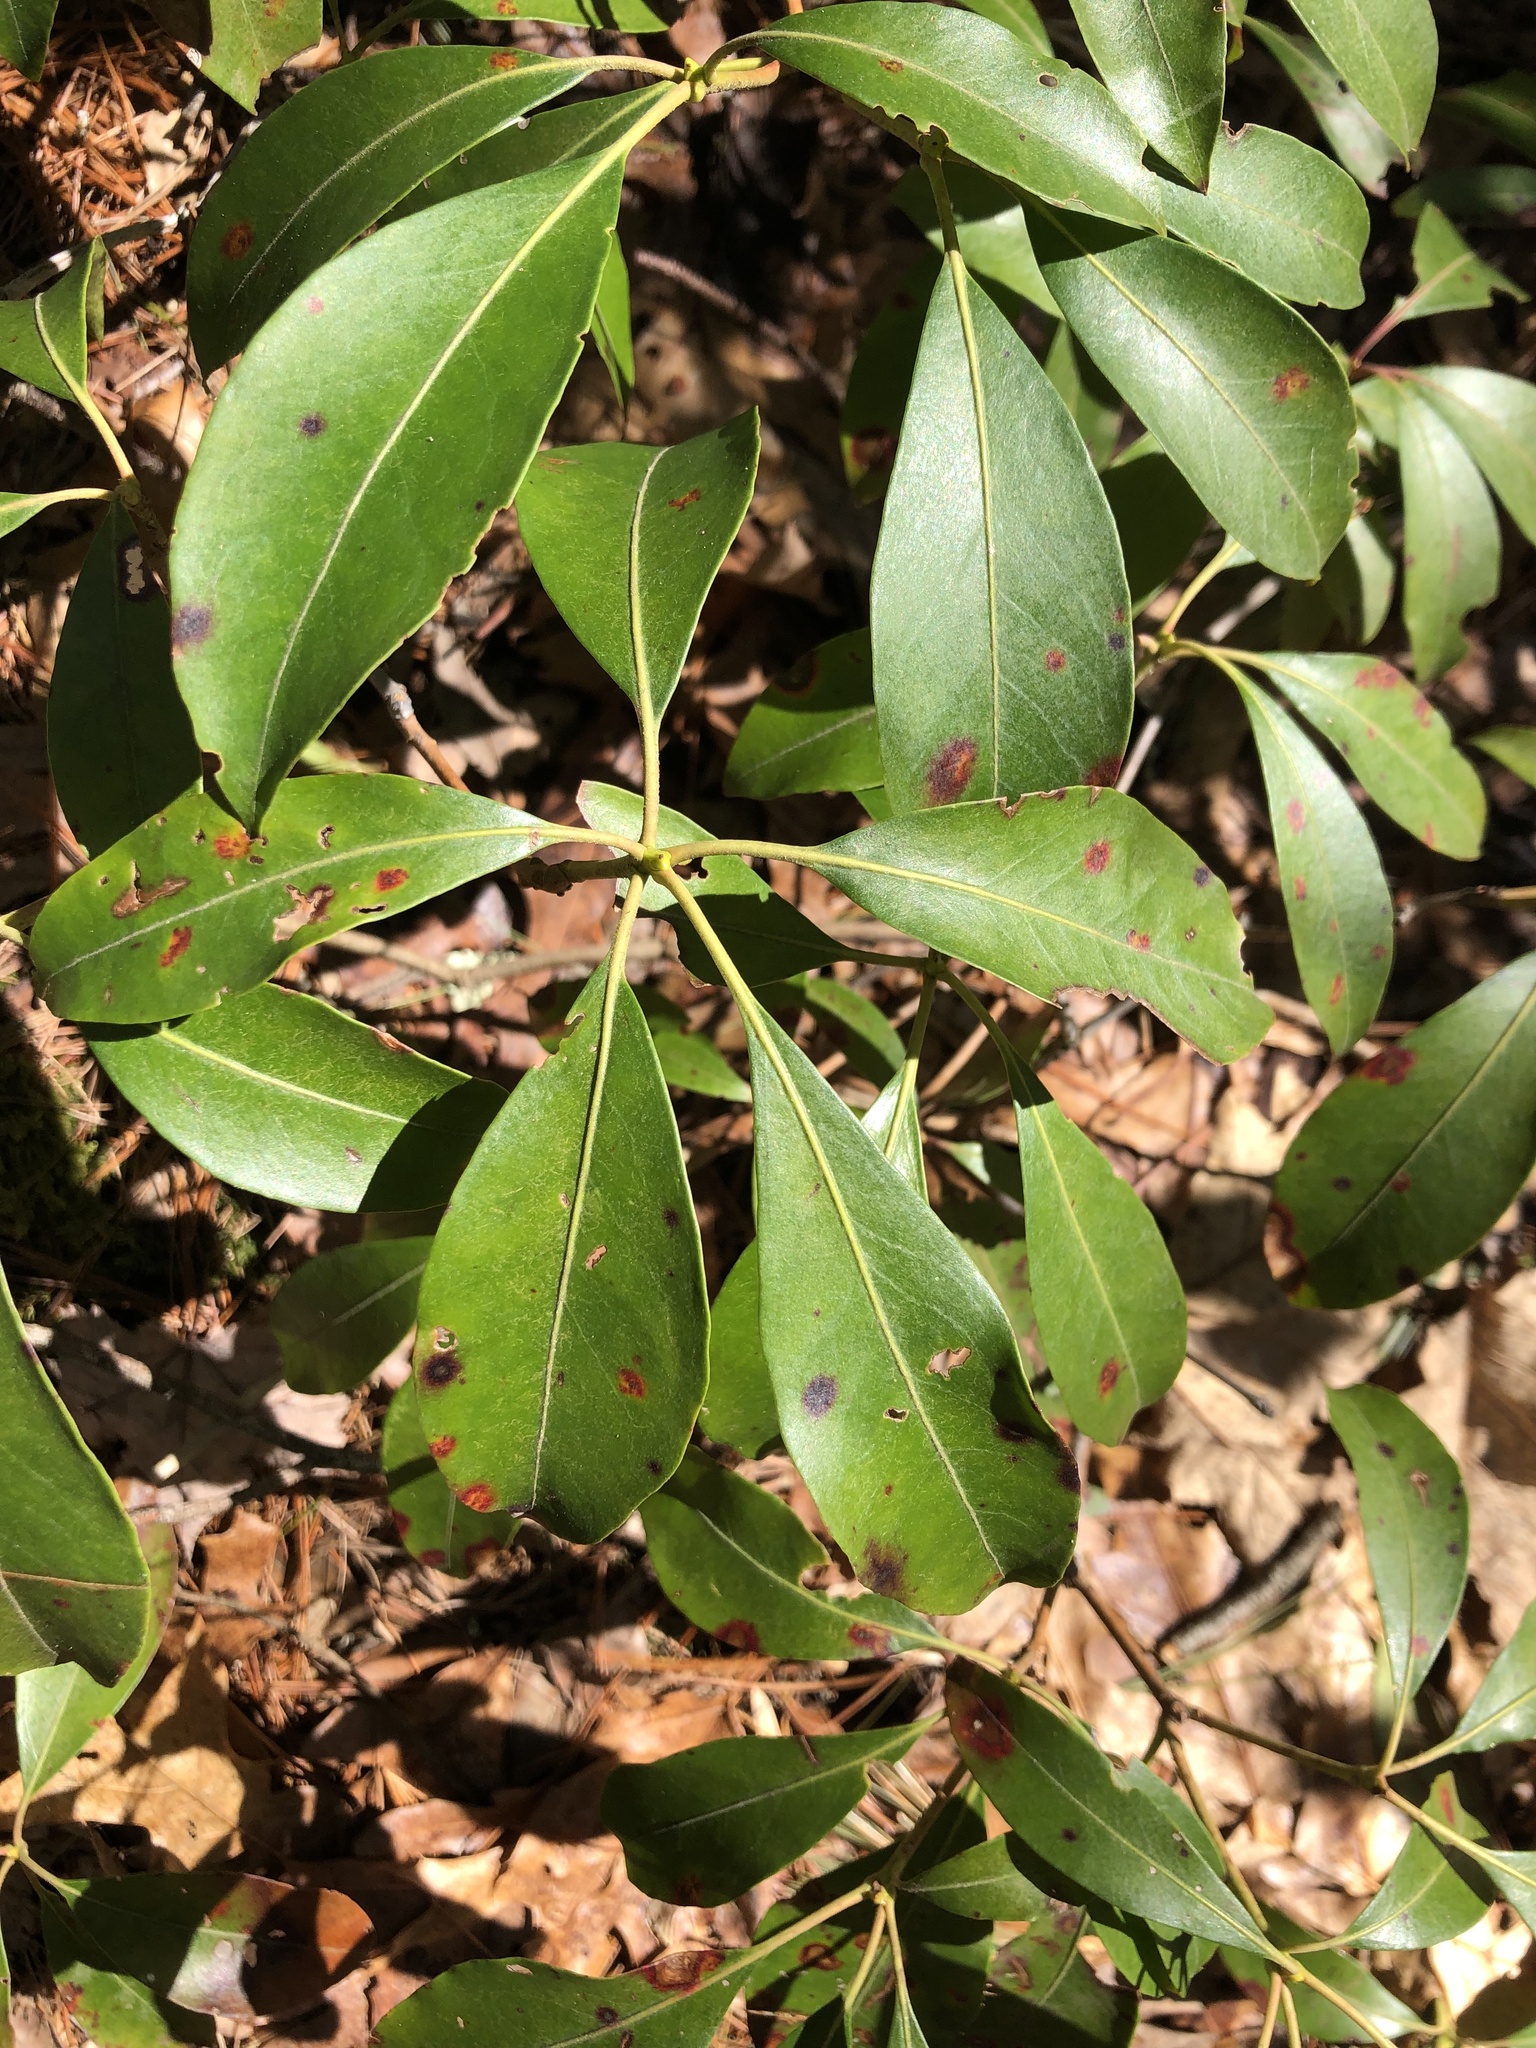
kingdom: Plantae
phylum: Tracheophyta
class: Magnoliopsida
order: Ericales
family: Ericaceae
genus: Kalmia
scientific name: Kalmia latifolia
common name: Mountain-laurel
